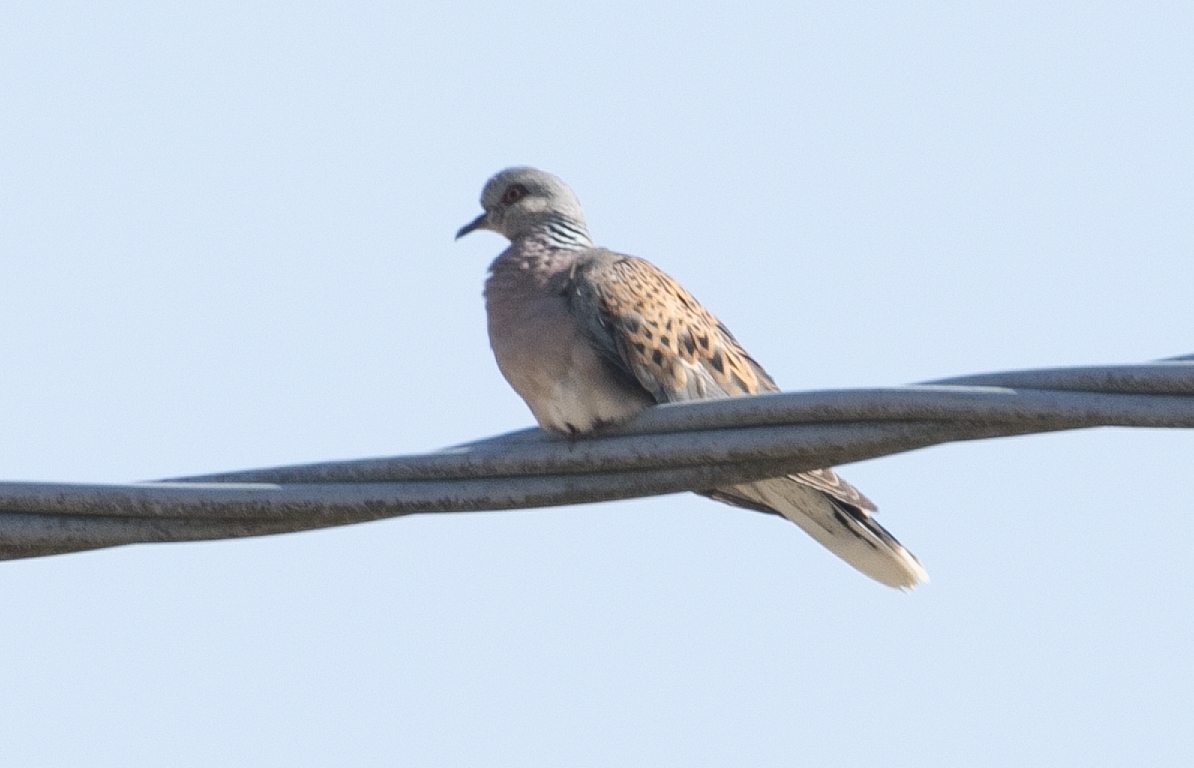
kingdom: Animalia
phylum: Chordata
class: Aves
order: Columbiformes
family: Columbidae
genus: Streptopelia
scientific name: Streptopelia turtur
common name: European turtle dove
